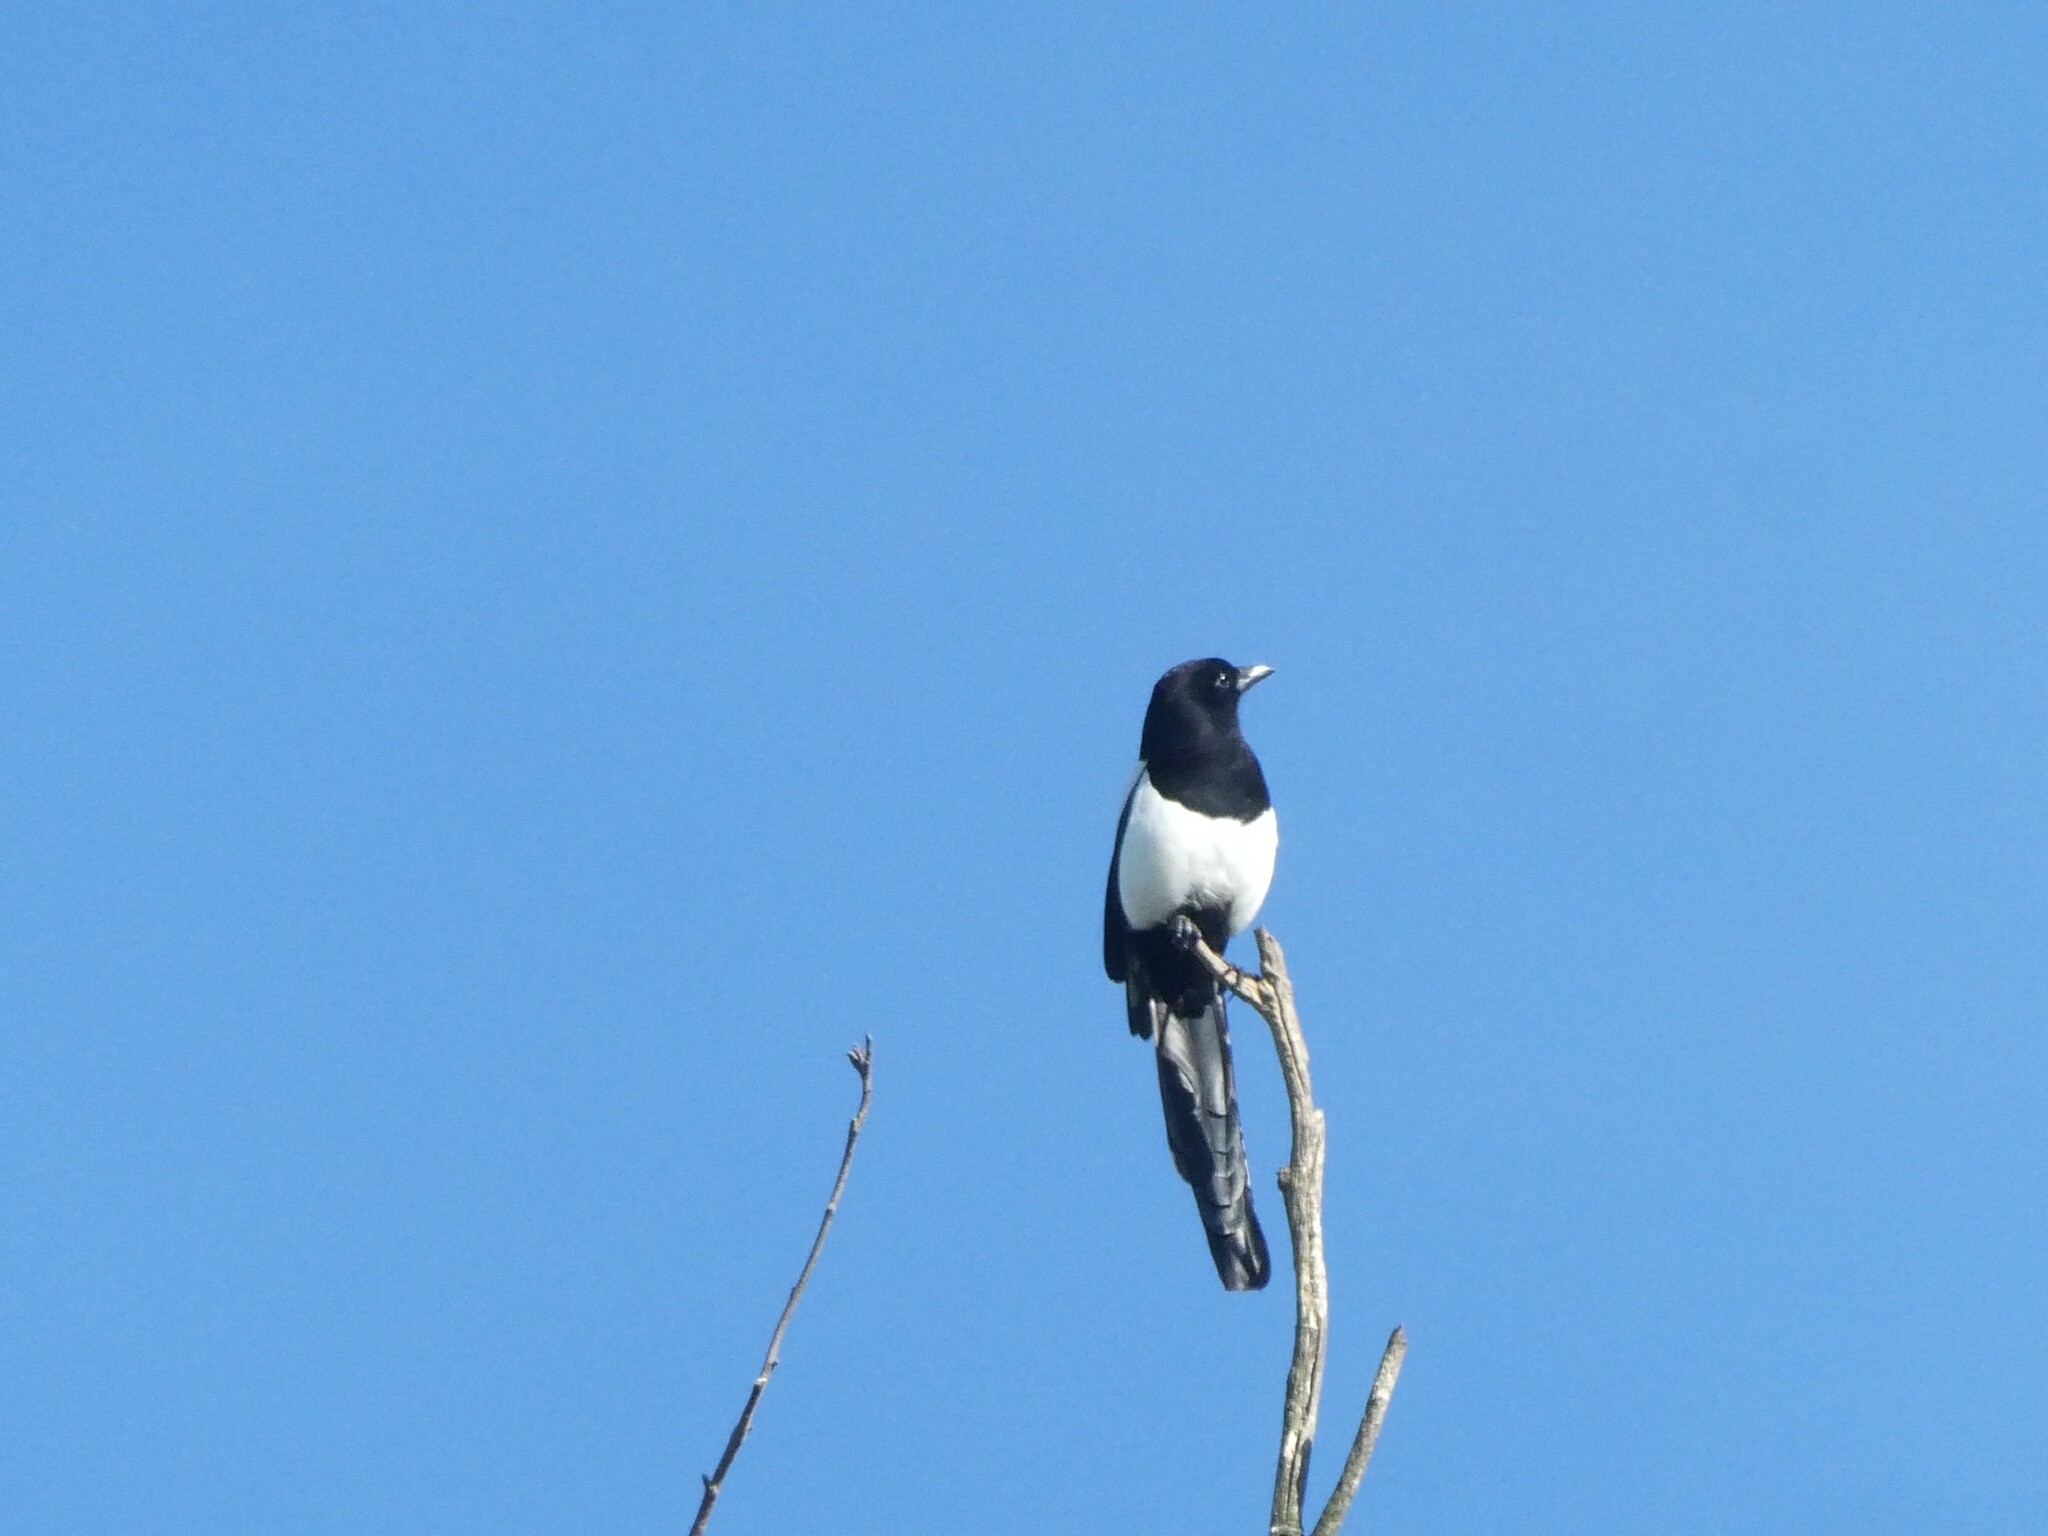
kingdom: Animalia
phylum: Chordata
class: Aves
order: Passeriformes
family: Corvidae
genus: Pica
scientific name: Pica pica
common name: Eurasian magpie
